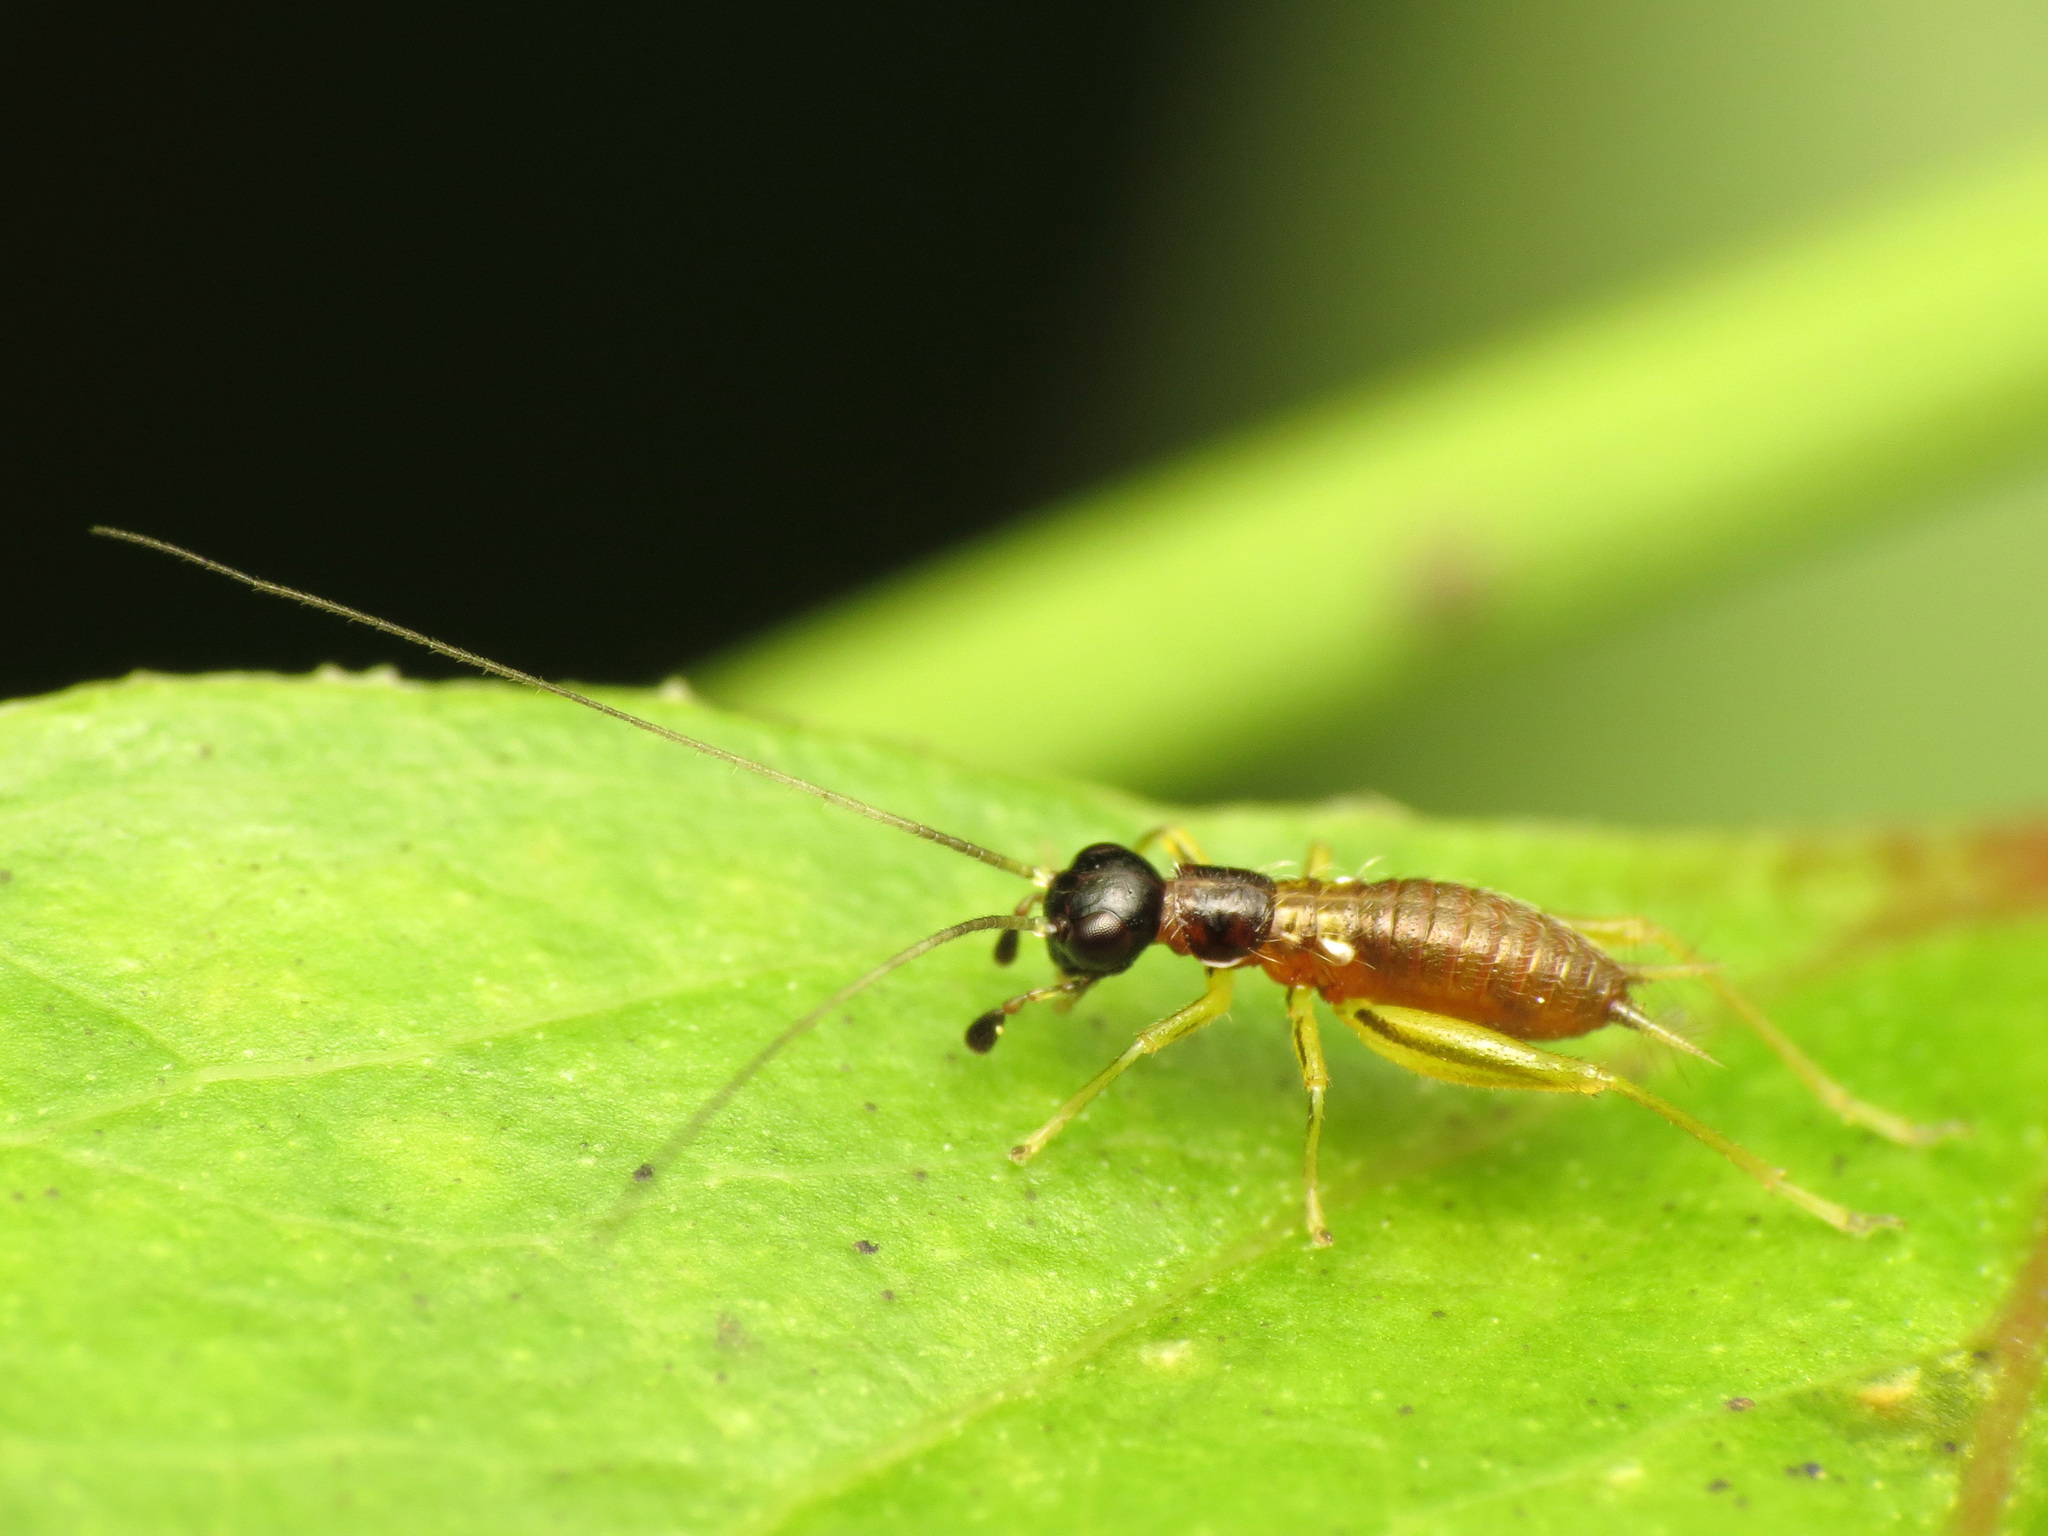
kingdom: Animalia
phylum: Arthropoda
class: Insecta
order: Orthoptera
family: Trigonidiidae
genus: Phyllopalpus
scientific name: Phyllopalpus pulchellus
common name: Handsome trig
